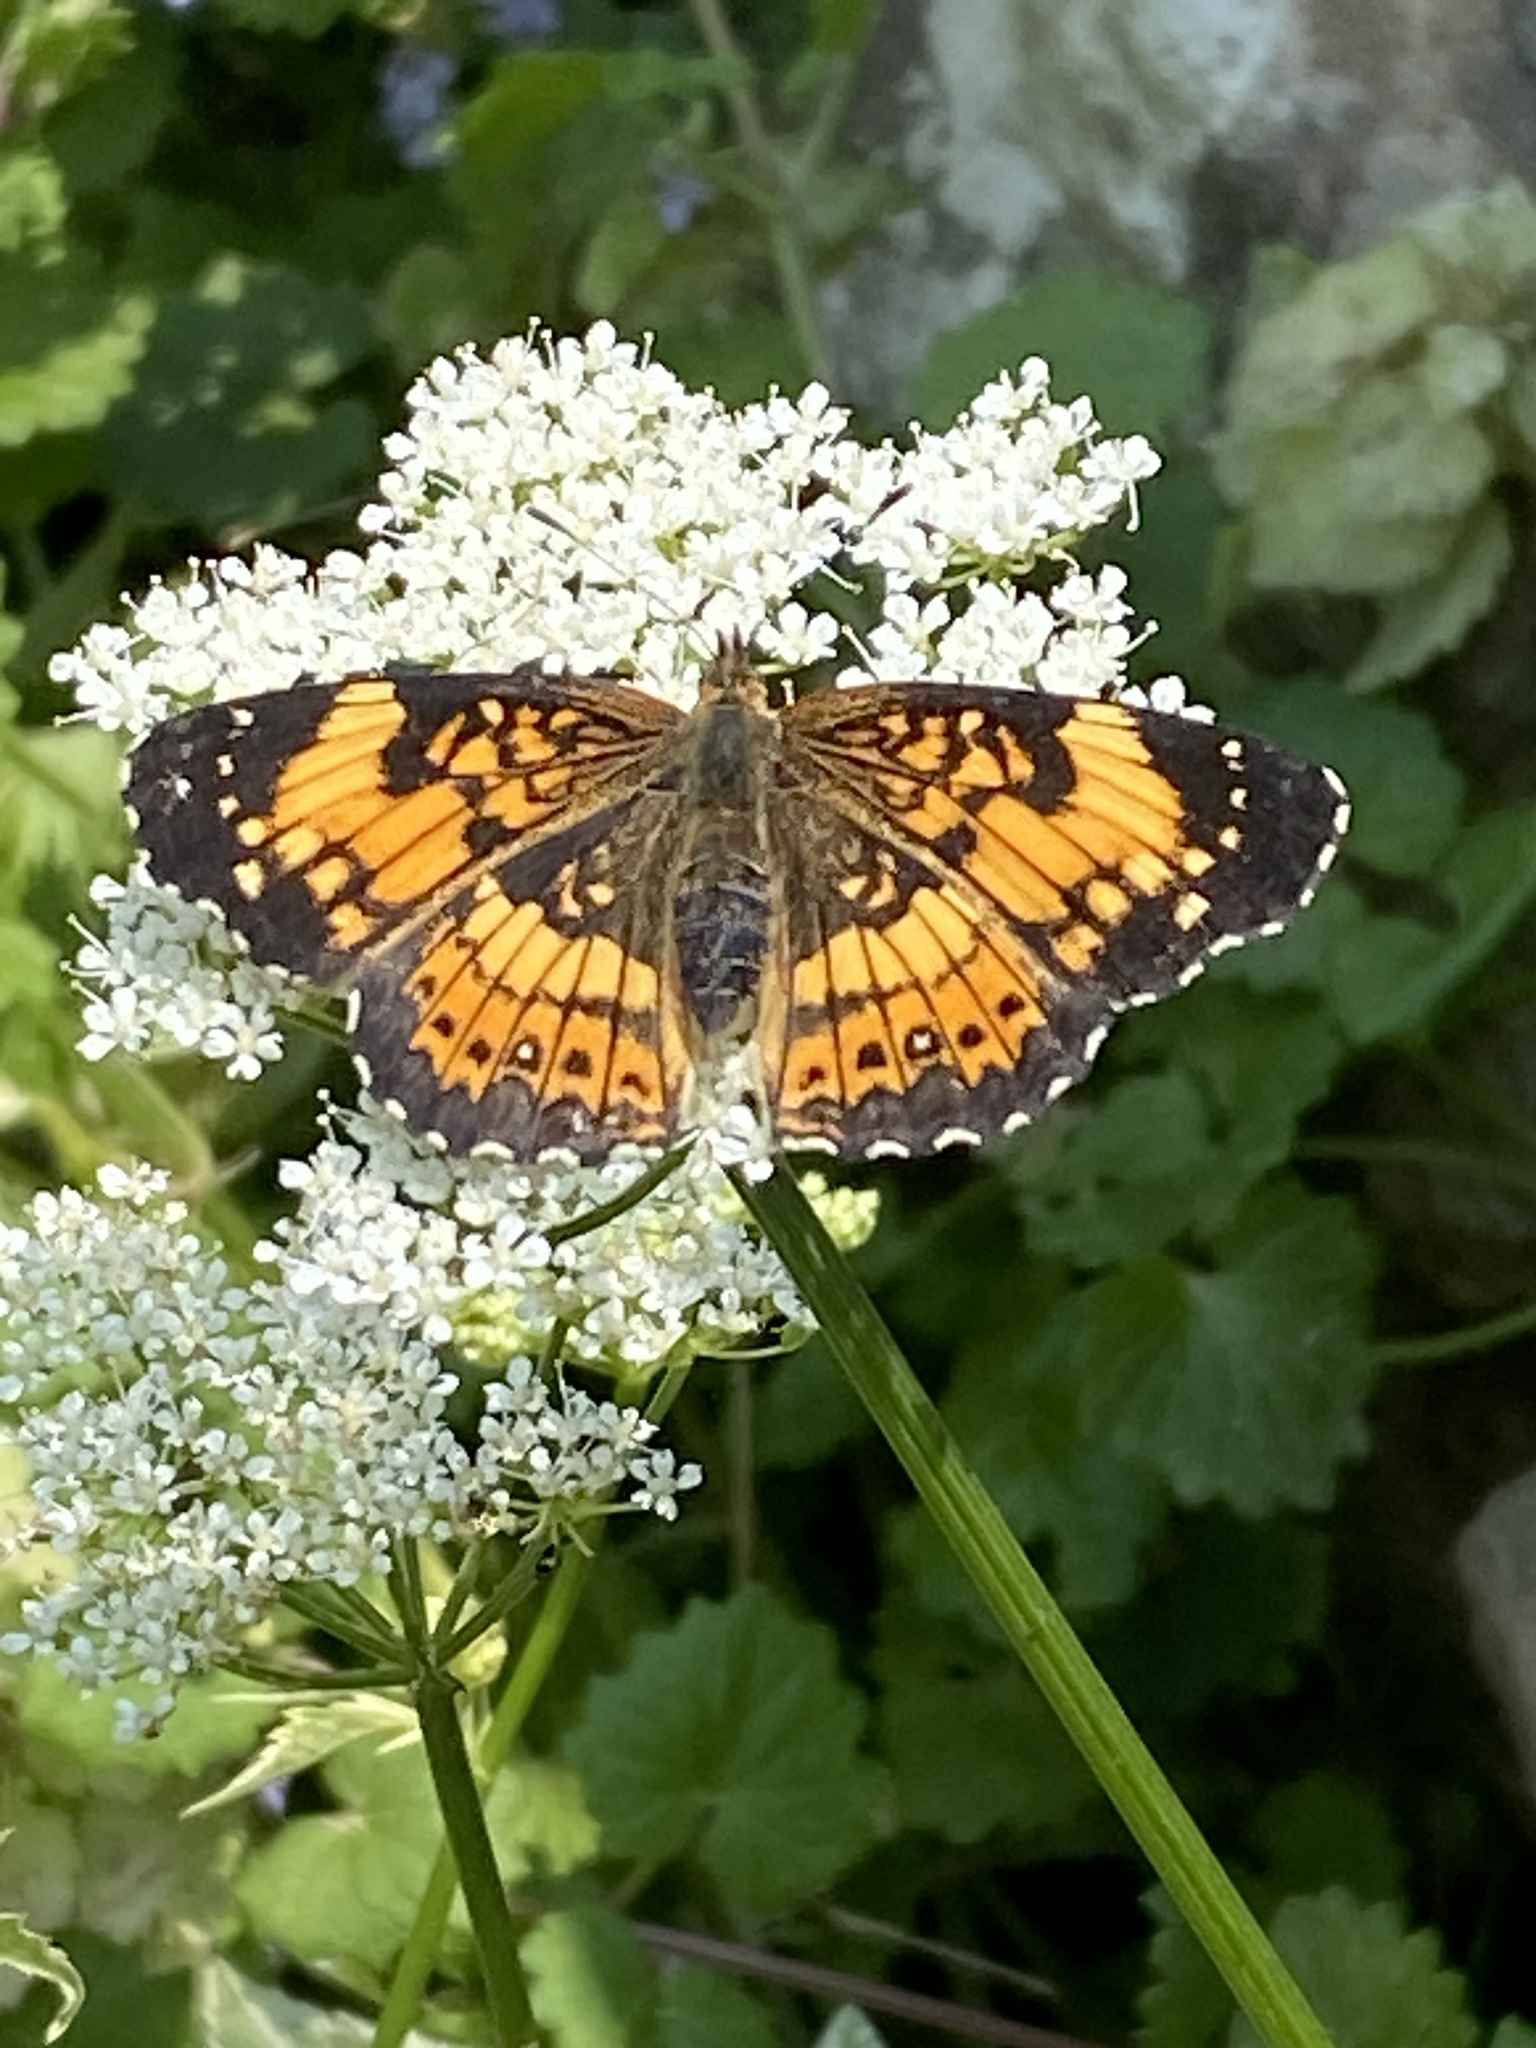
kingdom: Animalia
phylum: Arthropoda
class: Insecta
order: Lepidoptera
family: Nymphalidae
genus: Chlosyne
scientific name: Chlosyne nycteis
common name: Silvery checkerspot
